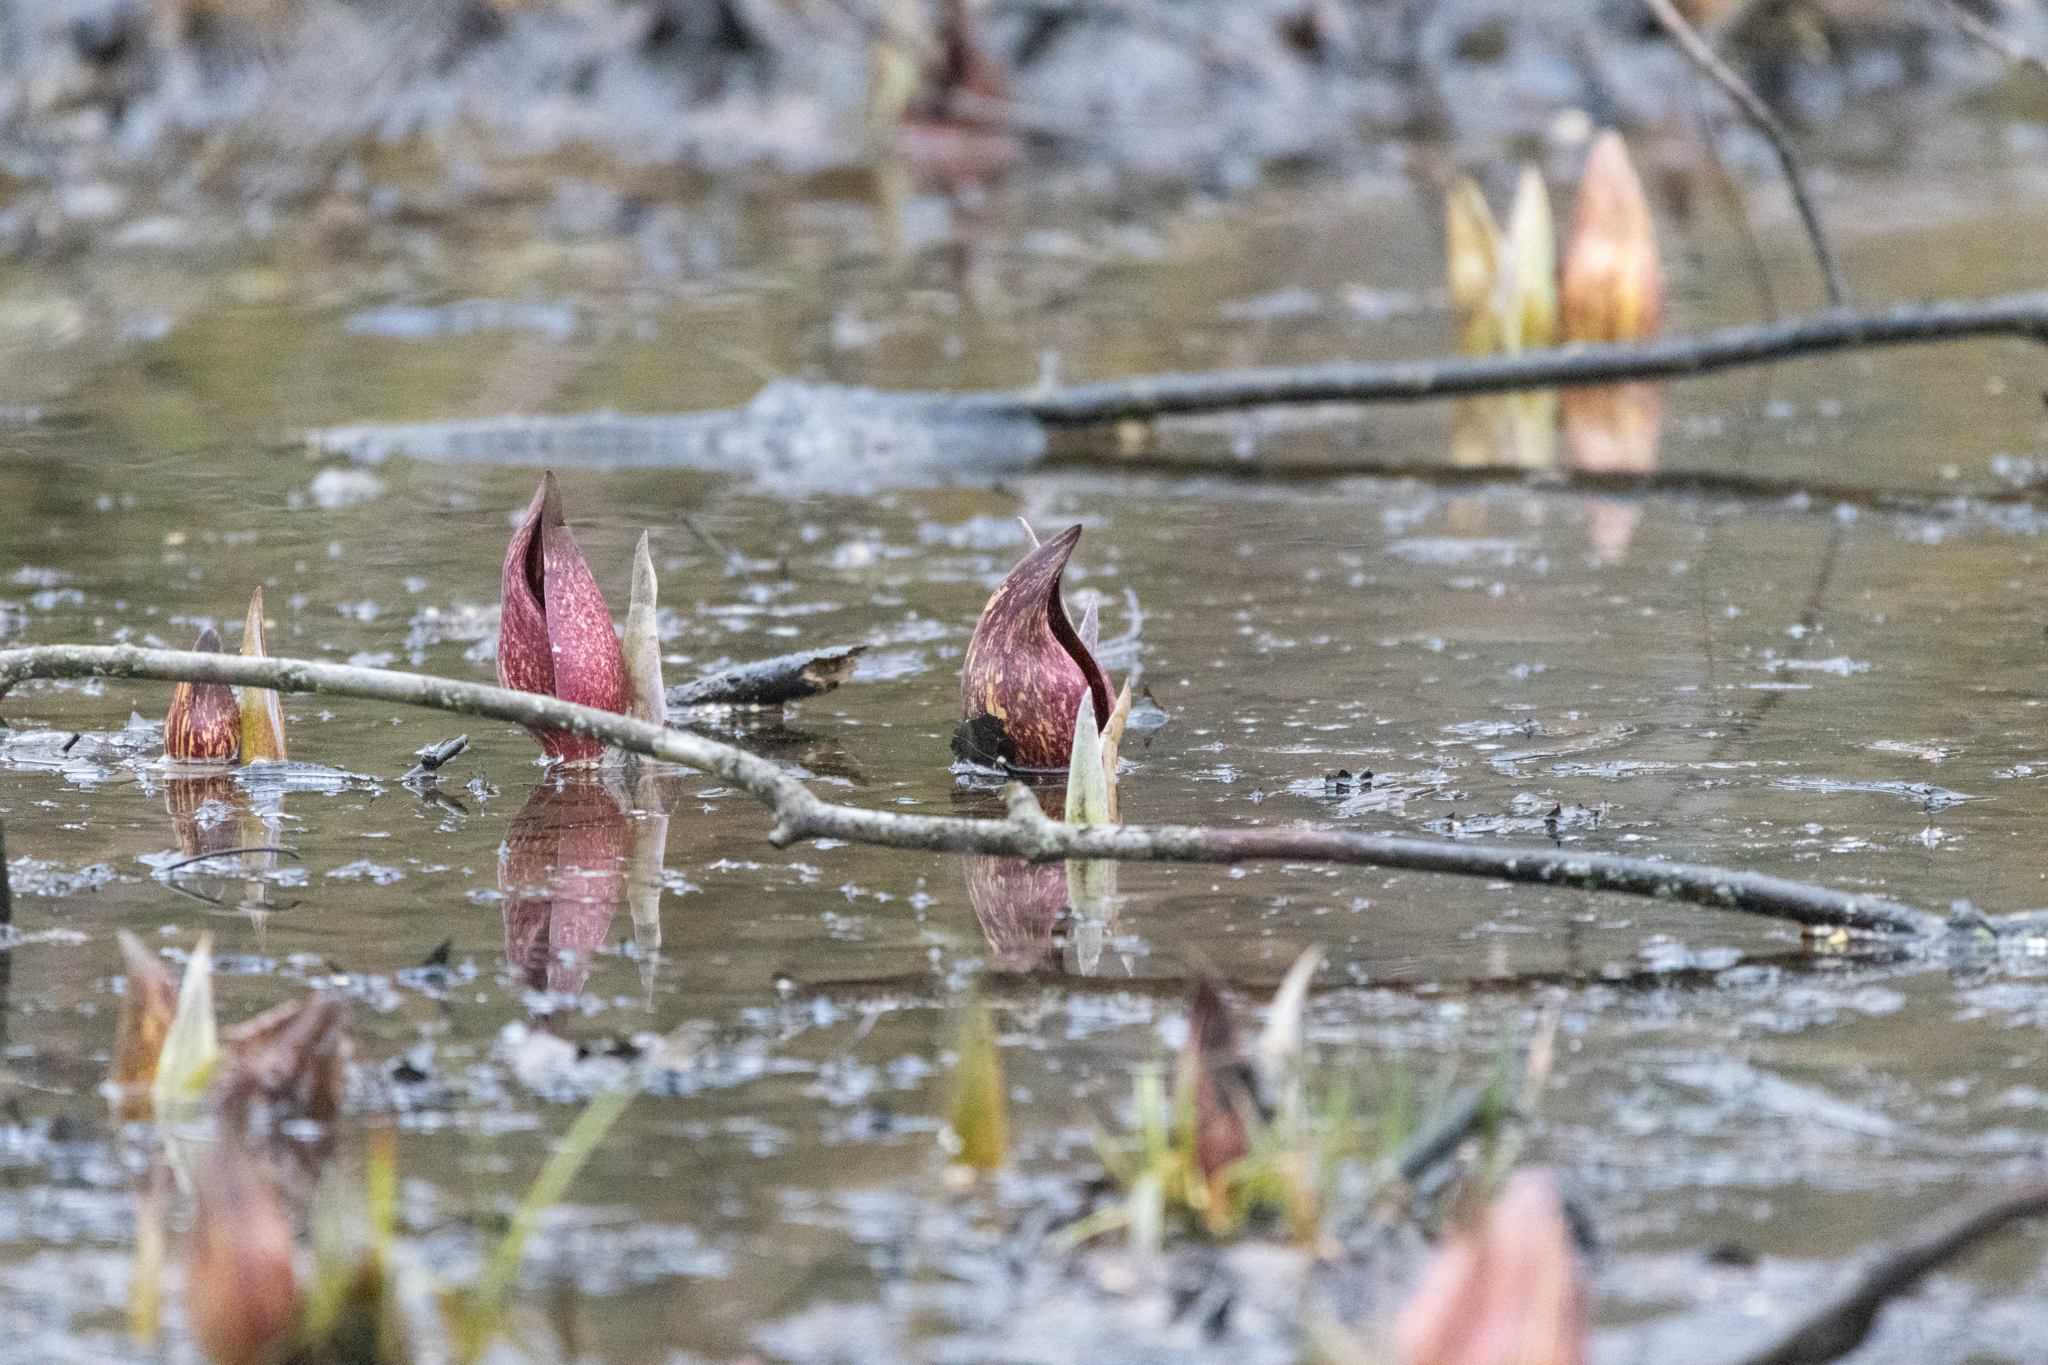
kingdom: Plantae
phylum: Tracheophyta
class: Liliopsida
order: Alismatales
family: Araceae
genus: Symplocarpus
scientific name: Symplocarpus foetidus
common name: Eastern skunk cabbage
